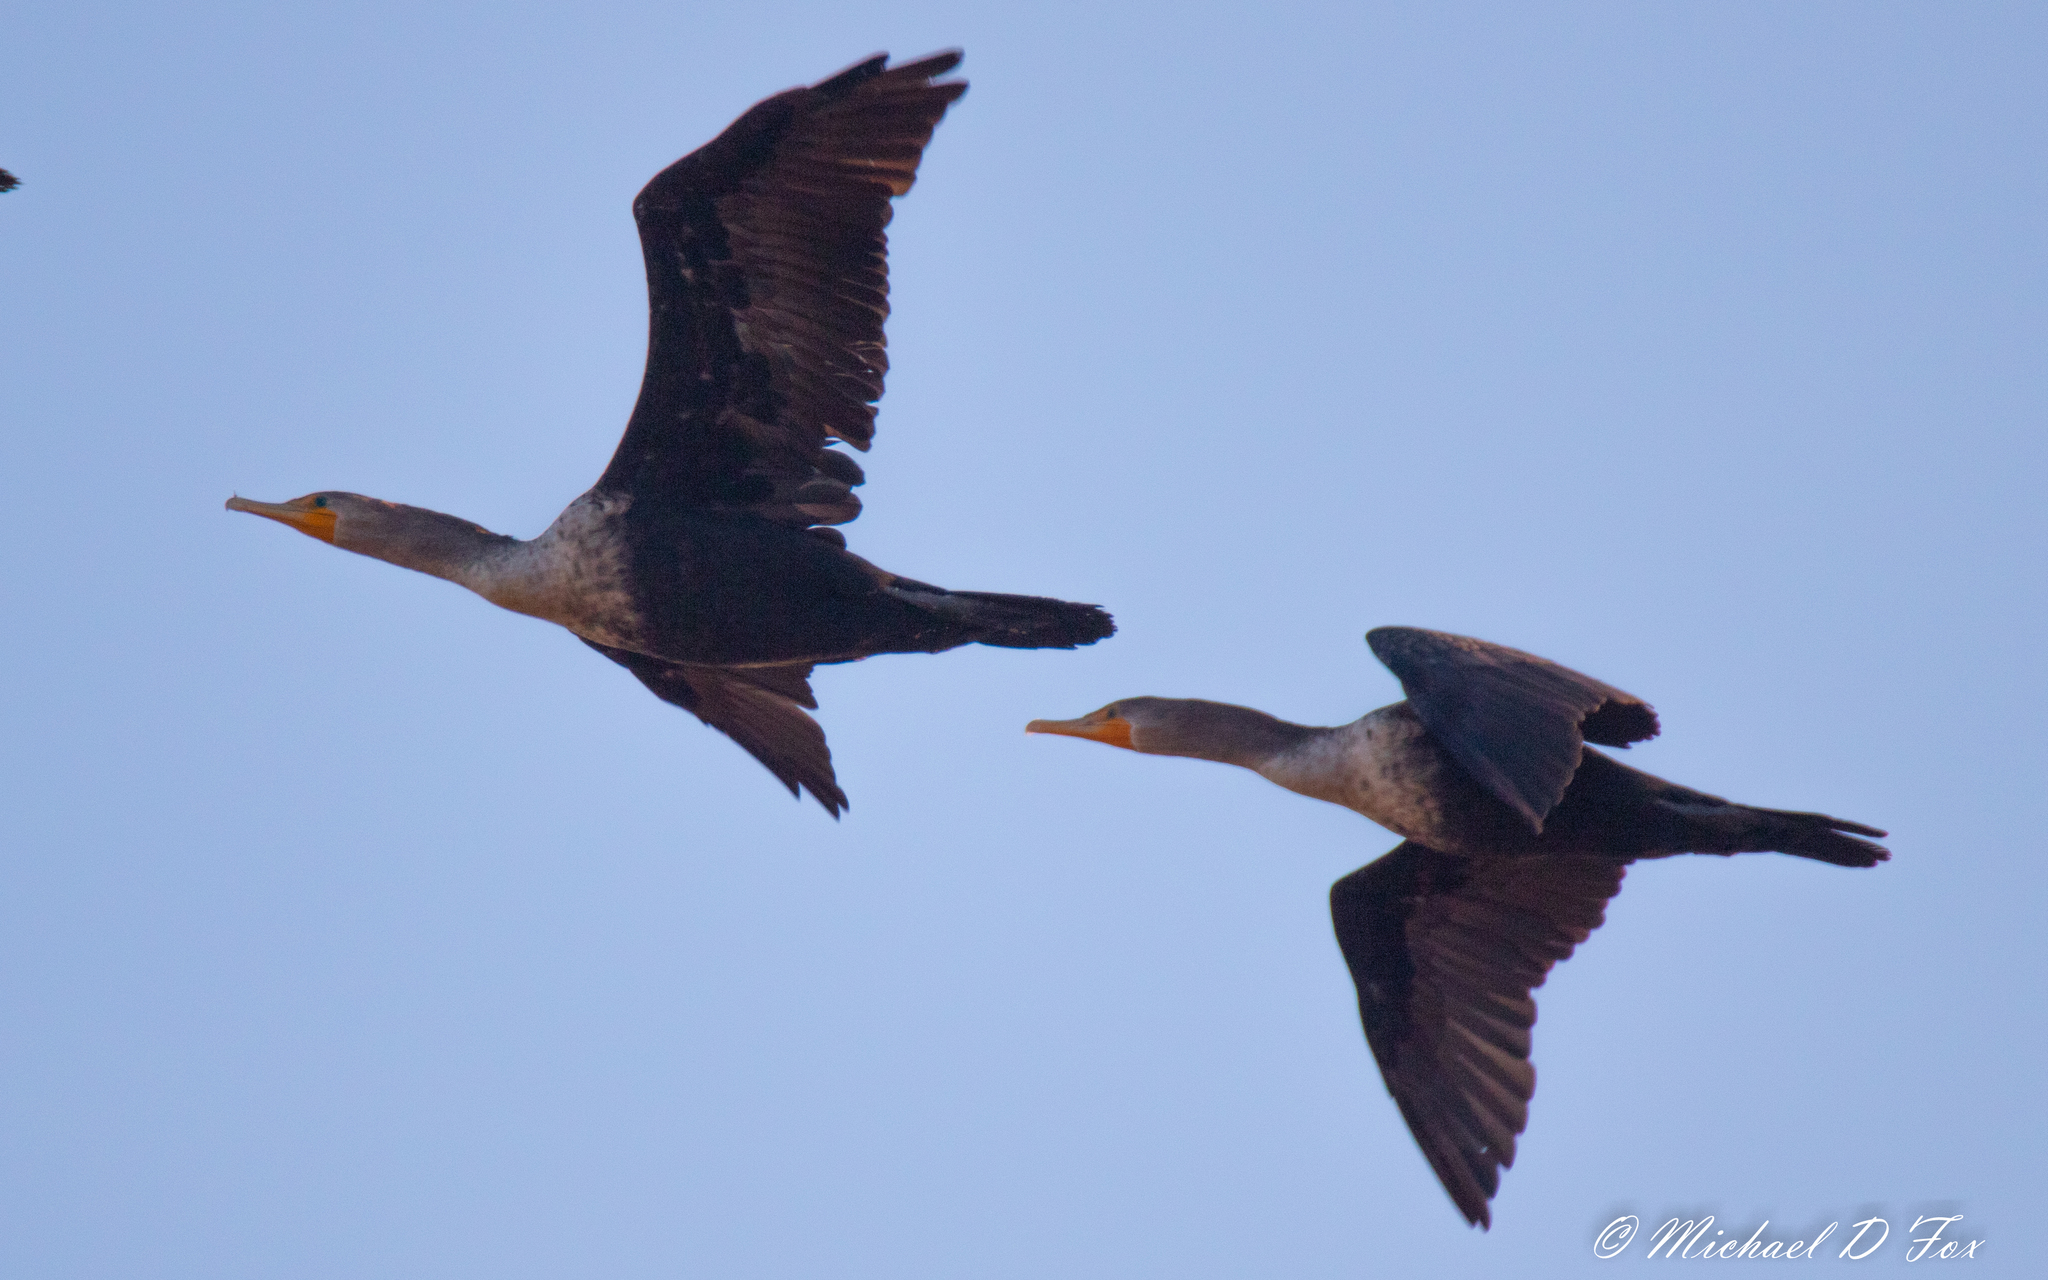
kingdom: Animalia
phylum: Chordata
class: Aves
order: Suliformes
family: Phalacrocoracidae
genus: Phalacrocorax
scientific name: Phalacrocorax auritus
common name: Double-crested cormorant
